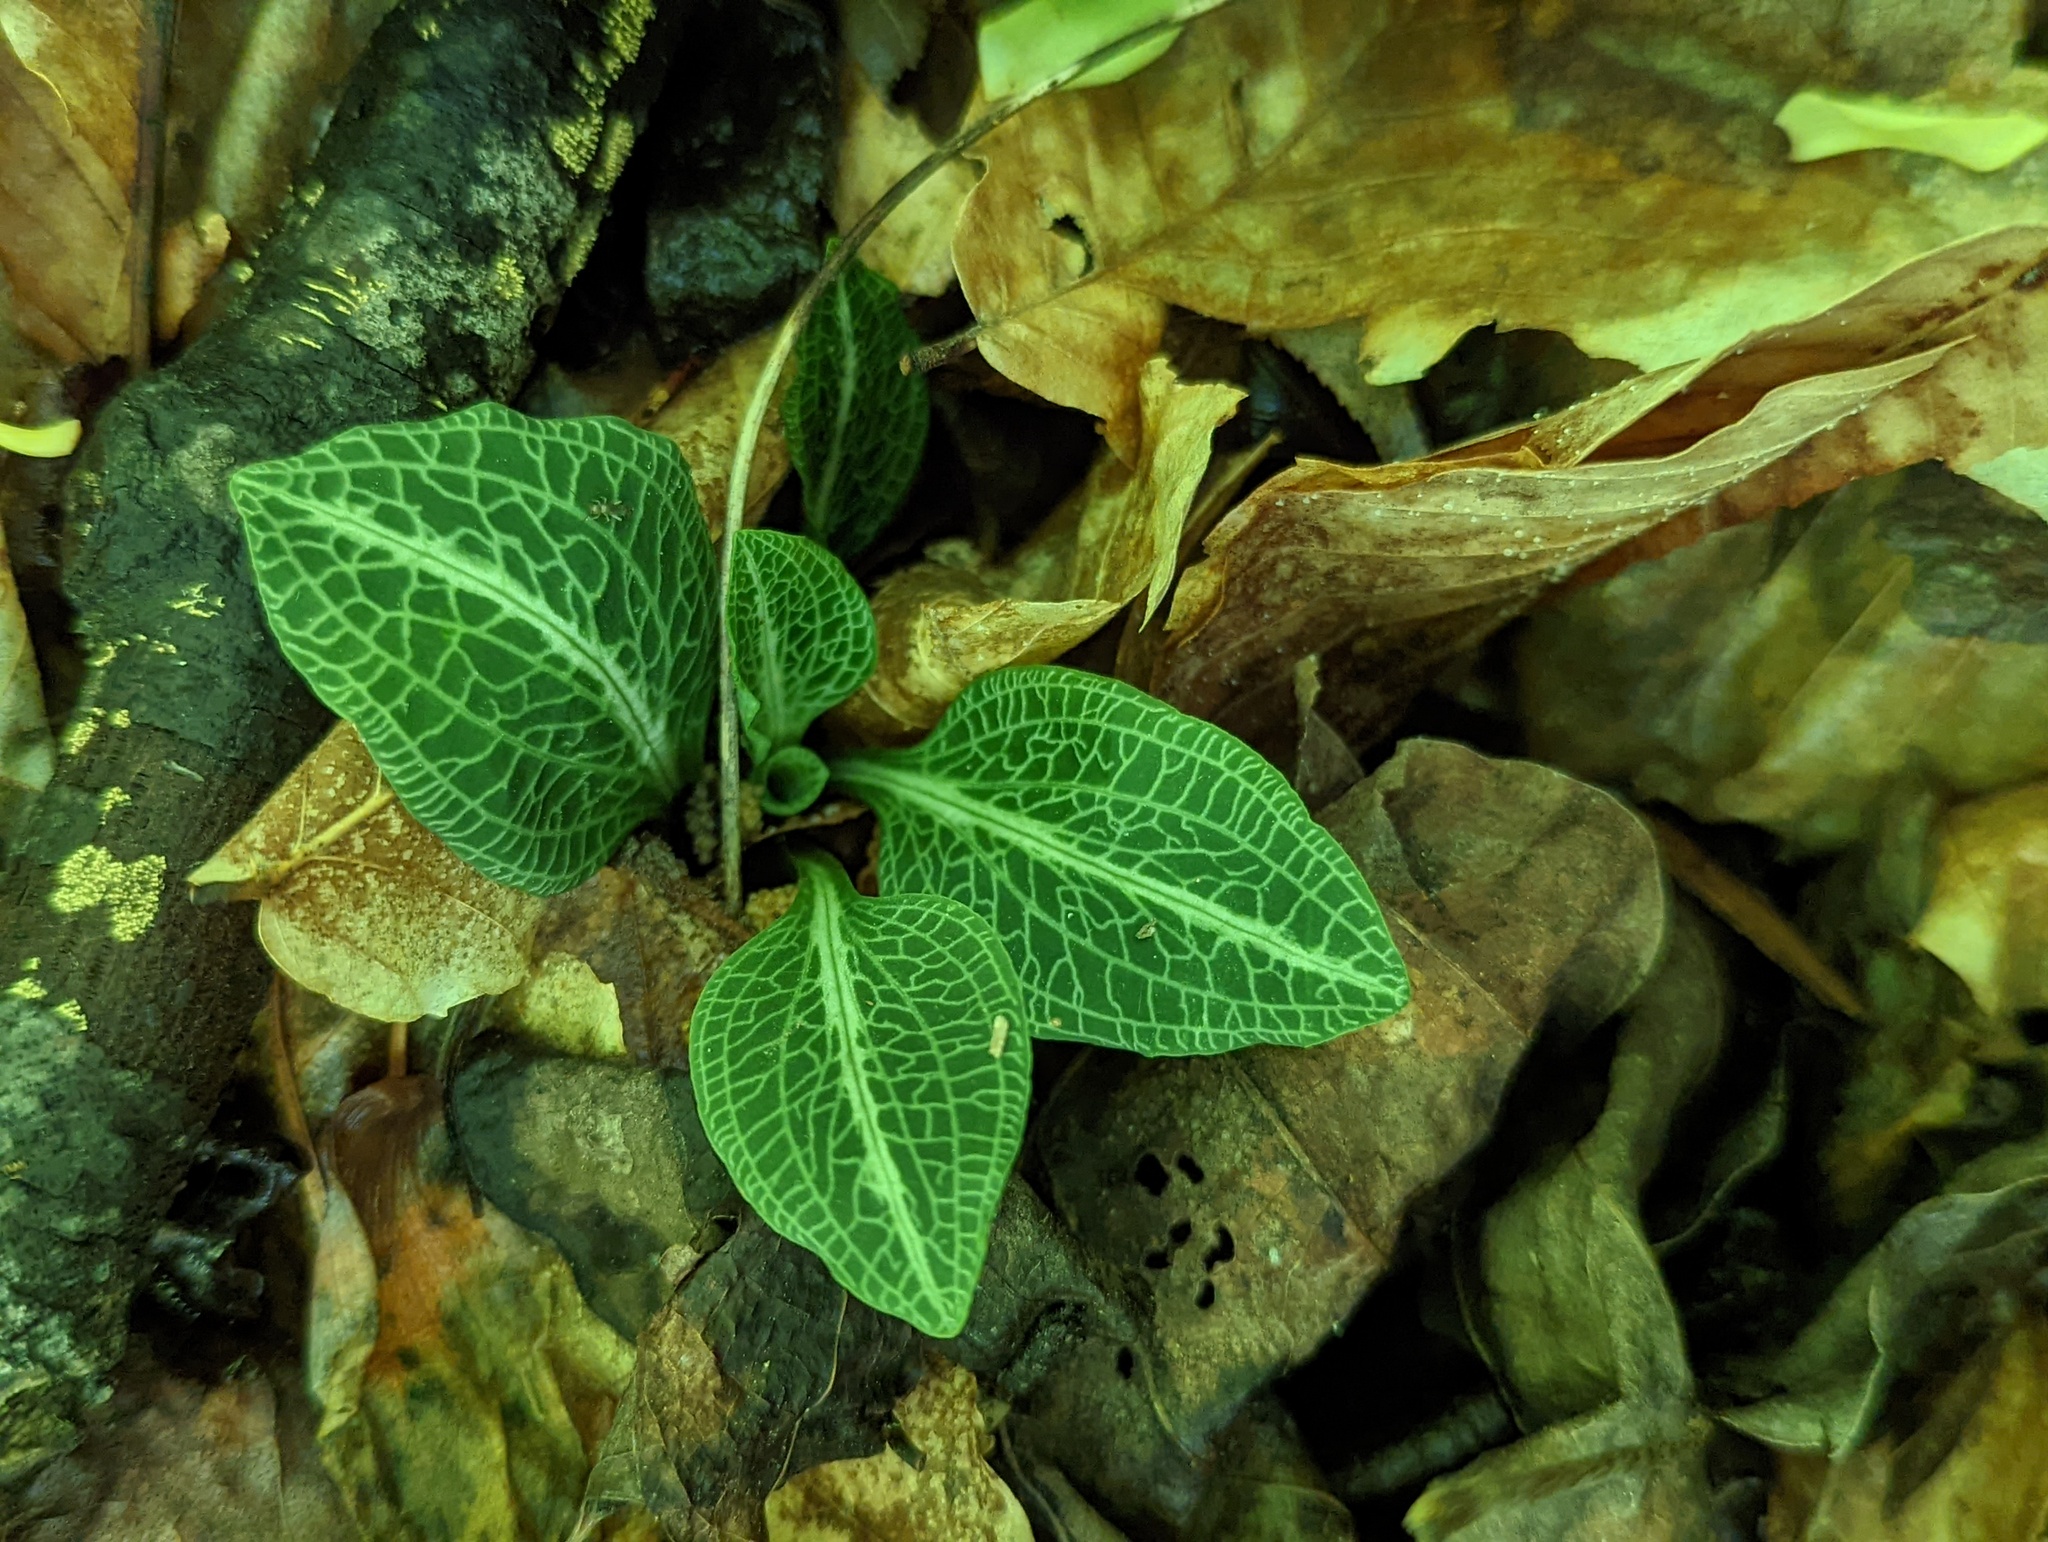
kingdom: Plantae
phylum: Tracheophyta
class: Liliopsida
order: Asparagales
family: Orchidaceae
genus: Goodyera
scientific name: Goodyera pubescens
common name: Downy rattlesnake-plantain
